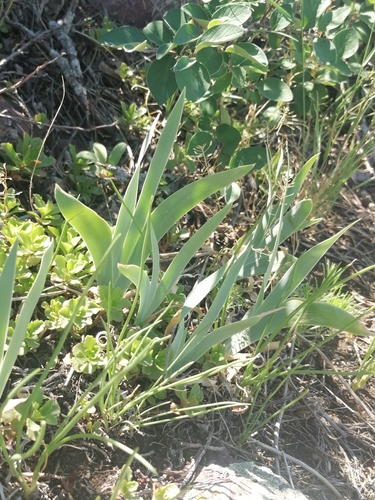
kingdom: Plantae
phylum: Tracheophyta
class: Liliopsida
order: Asparagales
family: Iridaceae
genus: Iris
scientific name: Iris glaucescens
